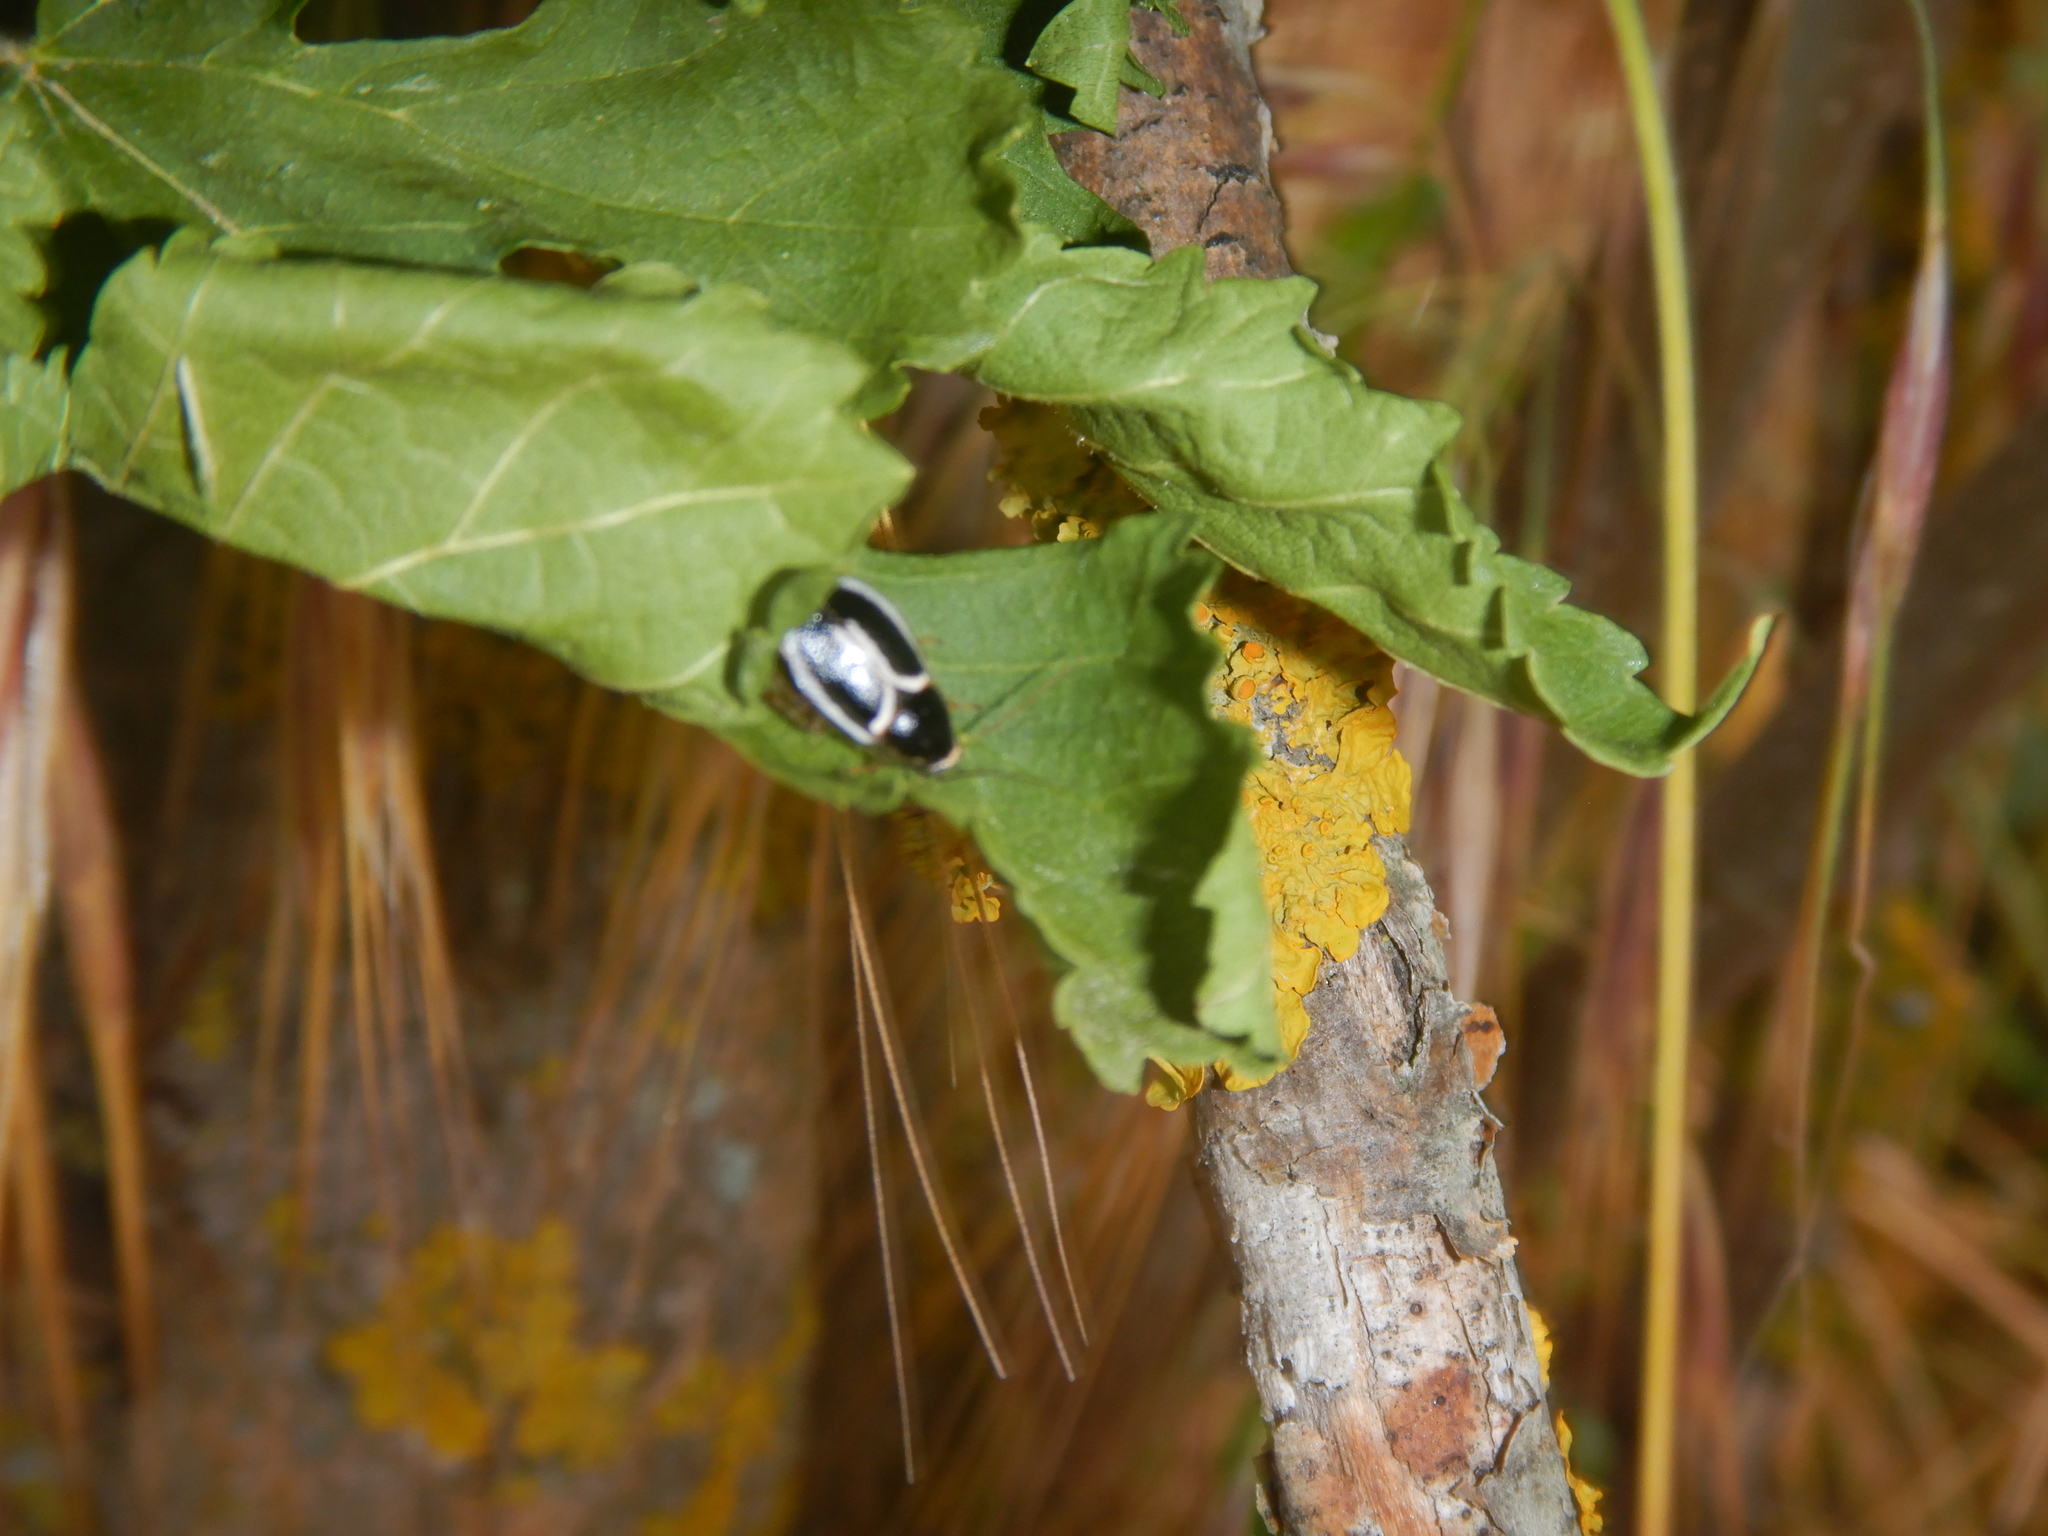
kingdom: Animalia
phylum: Arthropoda
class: Insecta
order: Blattodea
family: Ectobiidae
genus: Phyllodromica
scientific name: Phyllodromica marginata
